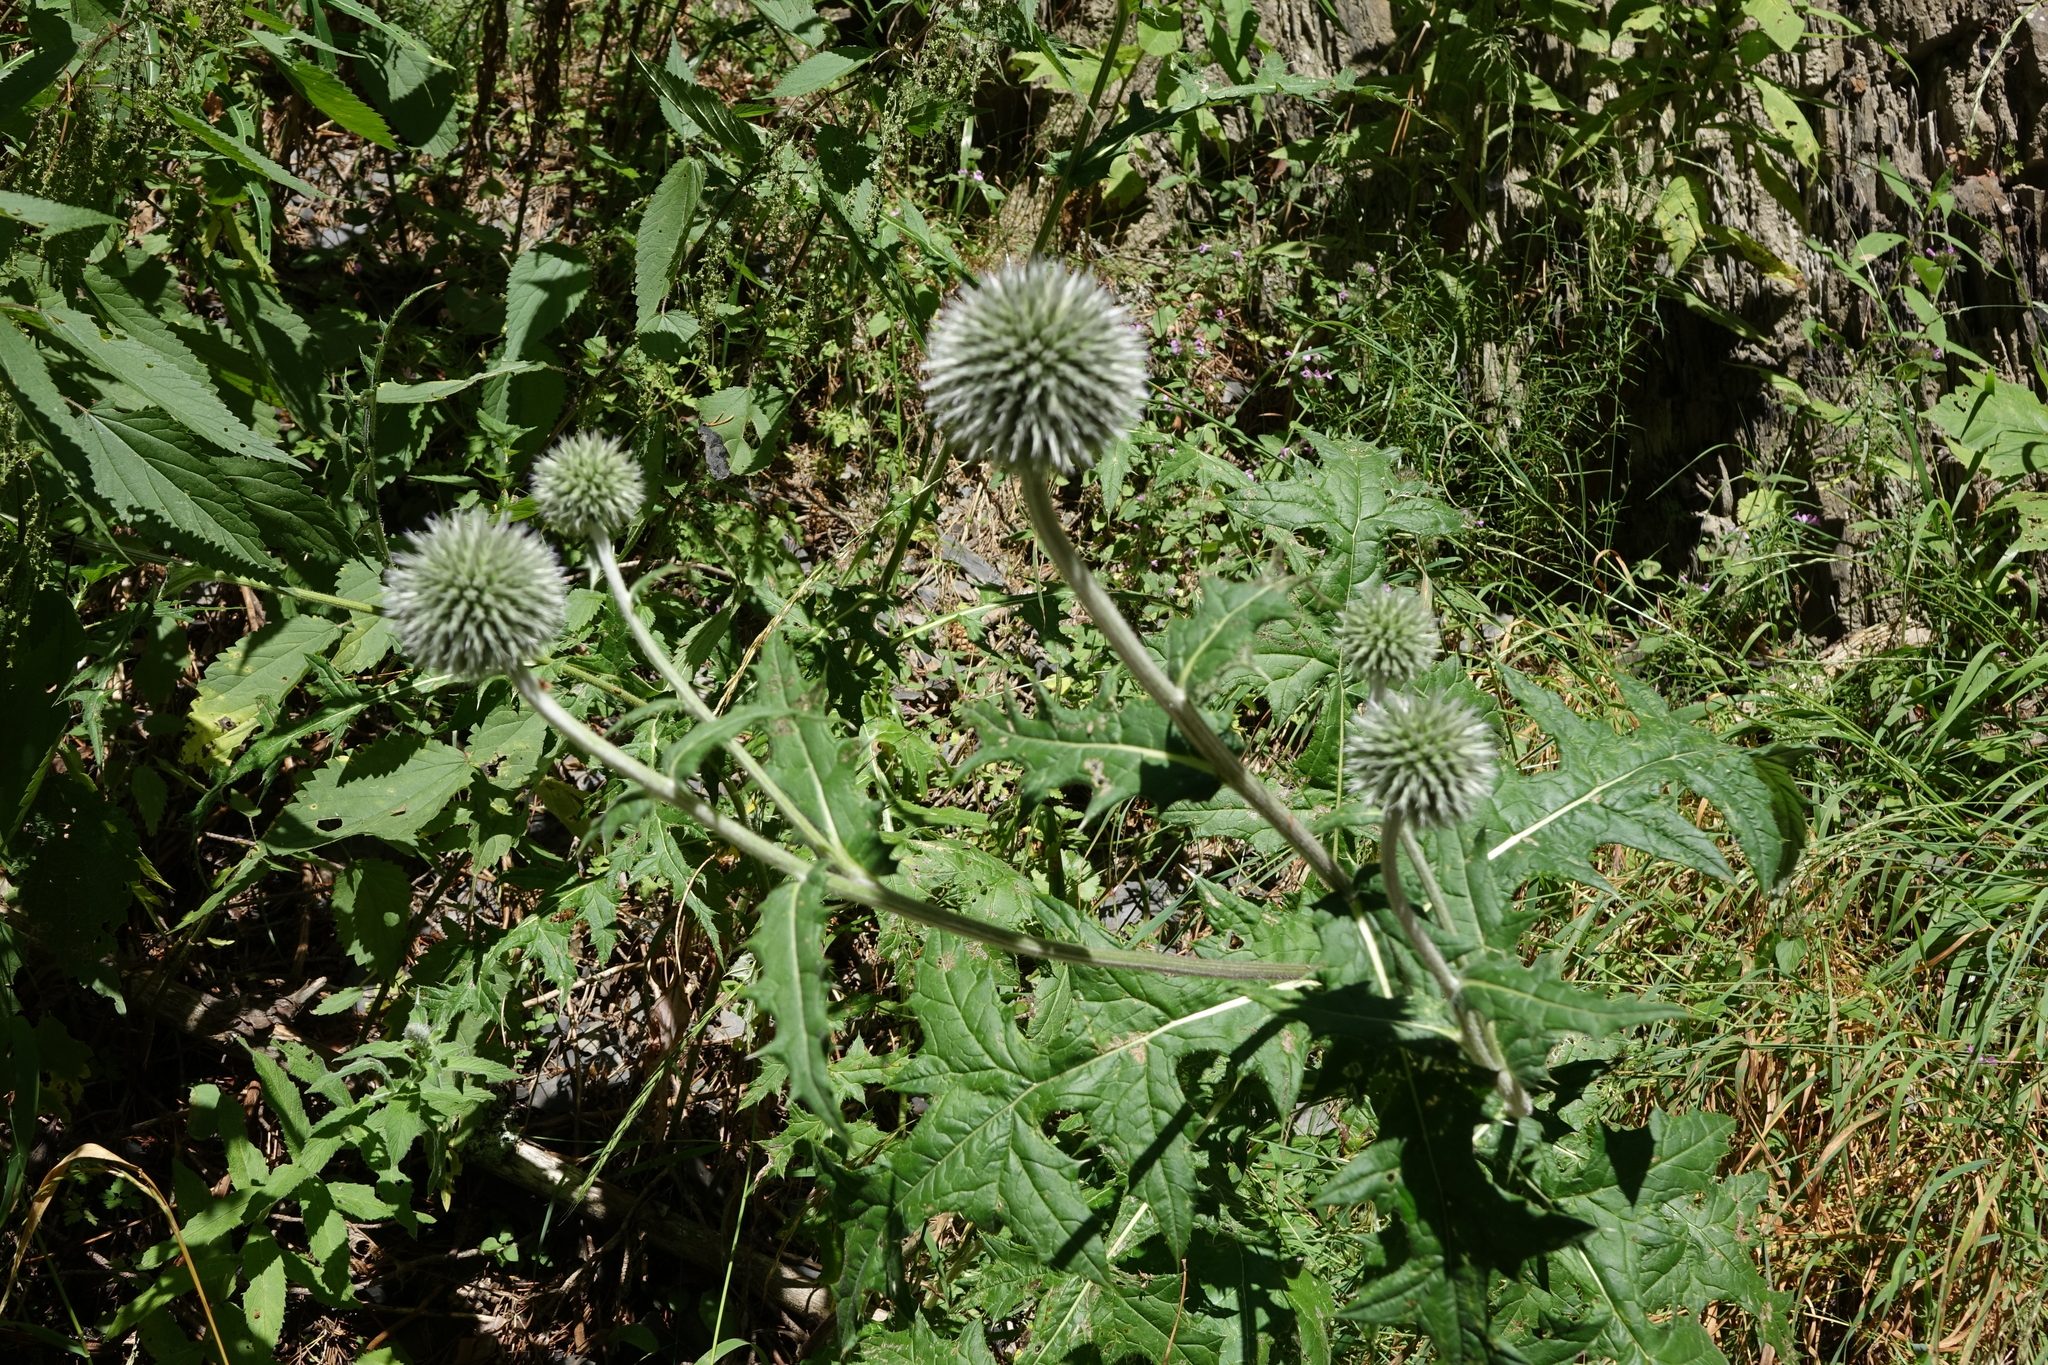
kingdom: Plantae
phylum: Tracheophyta
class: Magnoliopsida
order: Asterales
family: Asteraceae
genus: Echinops
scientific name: Echinops sphaerocephalus
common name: Glandular globe-thistle
